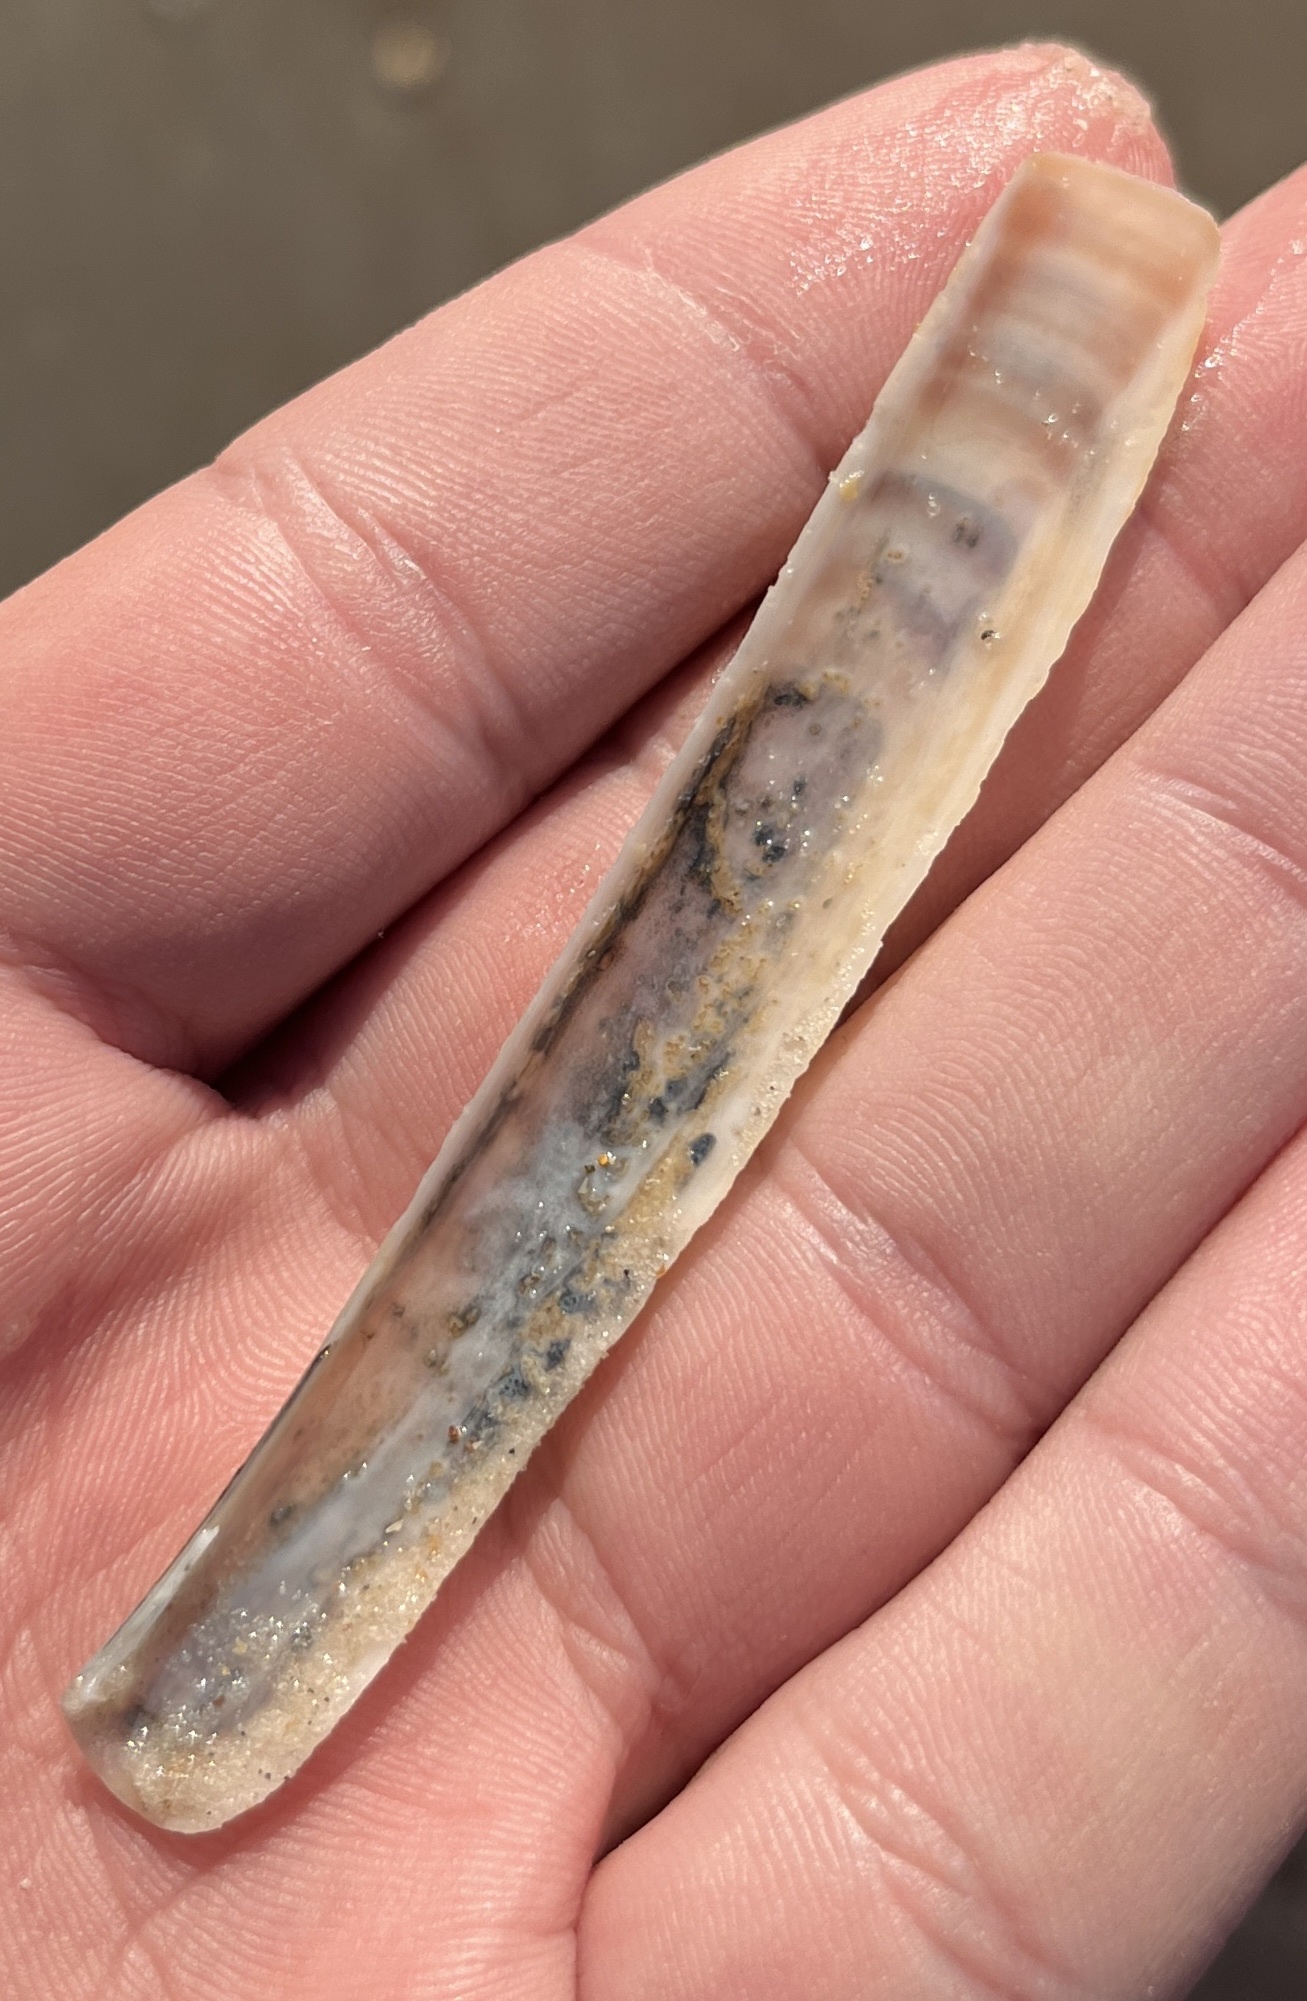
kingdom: Animalia
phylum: Mollusca
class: Bivalvia
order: Adapedonta
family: Pharidae
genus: Ensis
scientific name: Ensis leei
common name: American jack knife clam
